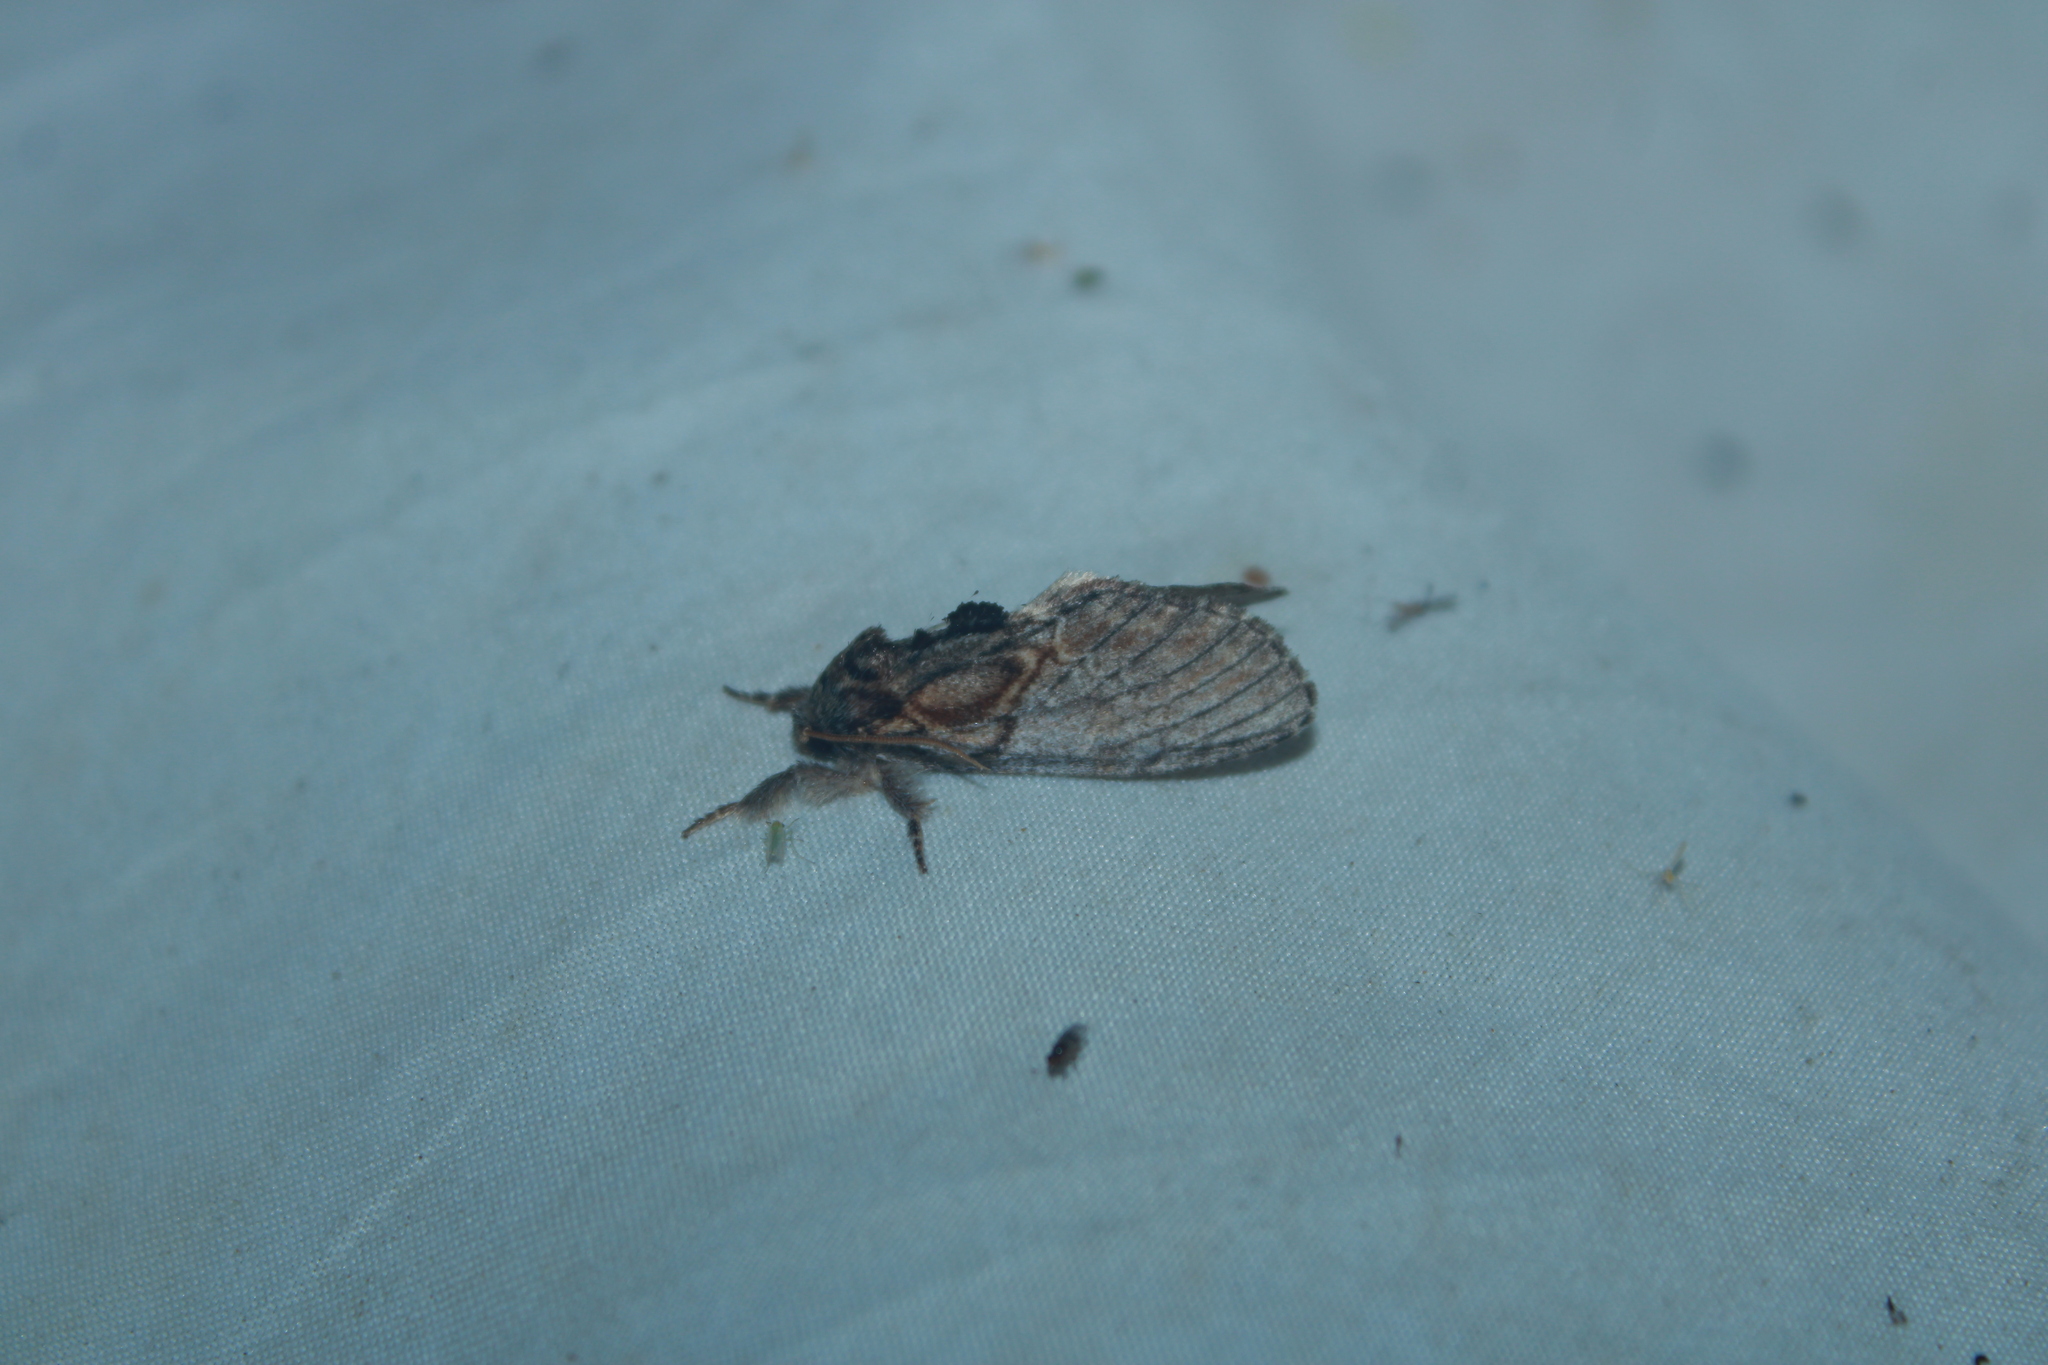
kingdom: Animalia
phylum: Arthropoda
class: Insecta
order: Lepidoptera
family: Notodontidae
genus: Peridea
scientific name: Peridea basitriens
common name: Oval-based prominent
